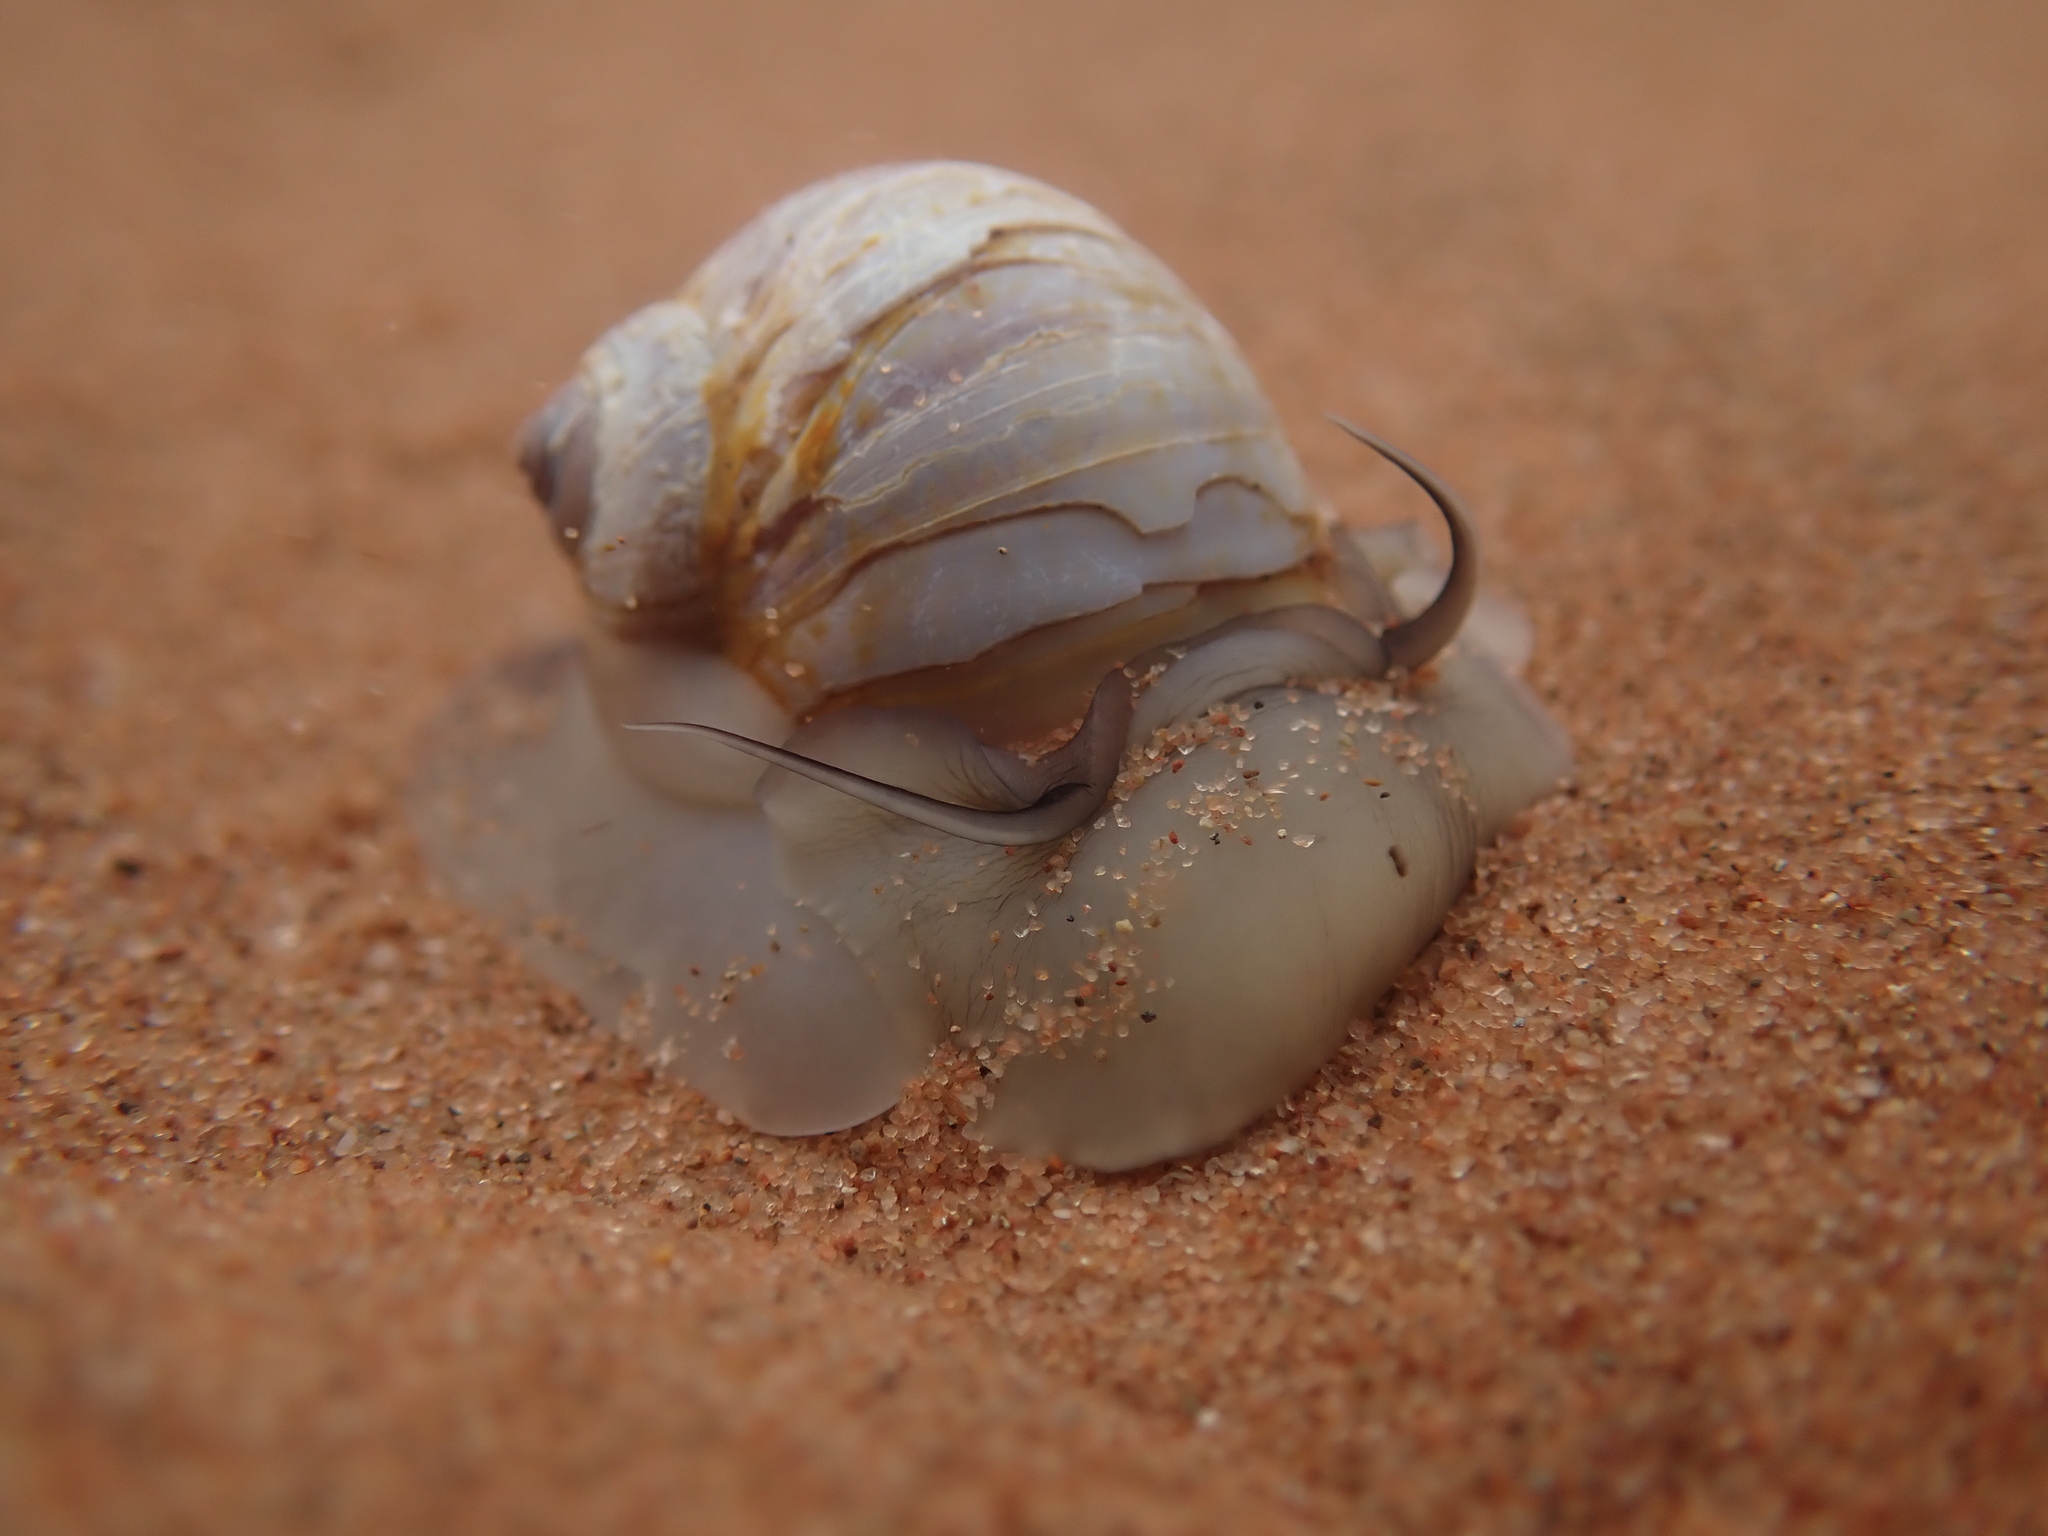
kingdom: Animalia
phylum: Mollusca
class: Gastropoda
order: Littorinimorpha
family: Naticidae
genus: Euspira
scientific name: Euspira heros
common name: Common northern moonsnail
